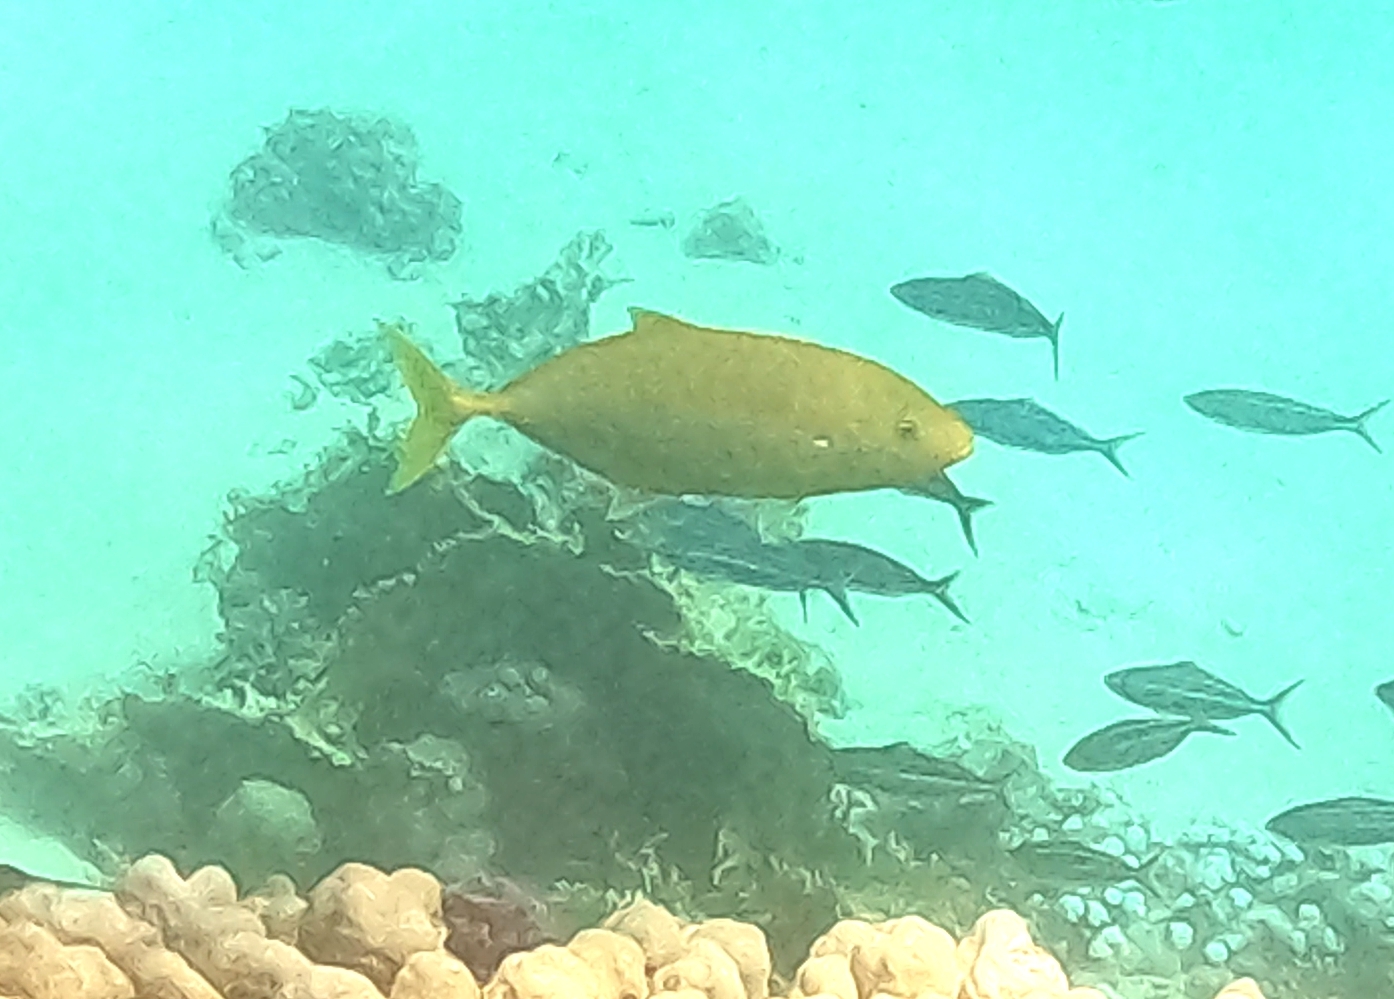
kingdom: Animalia
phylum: Chordata
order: Perciformes
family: Carangidae
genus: Flavocaranx
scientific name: Flavocaranx bajad
